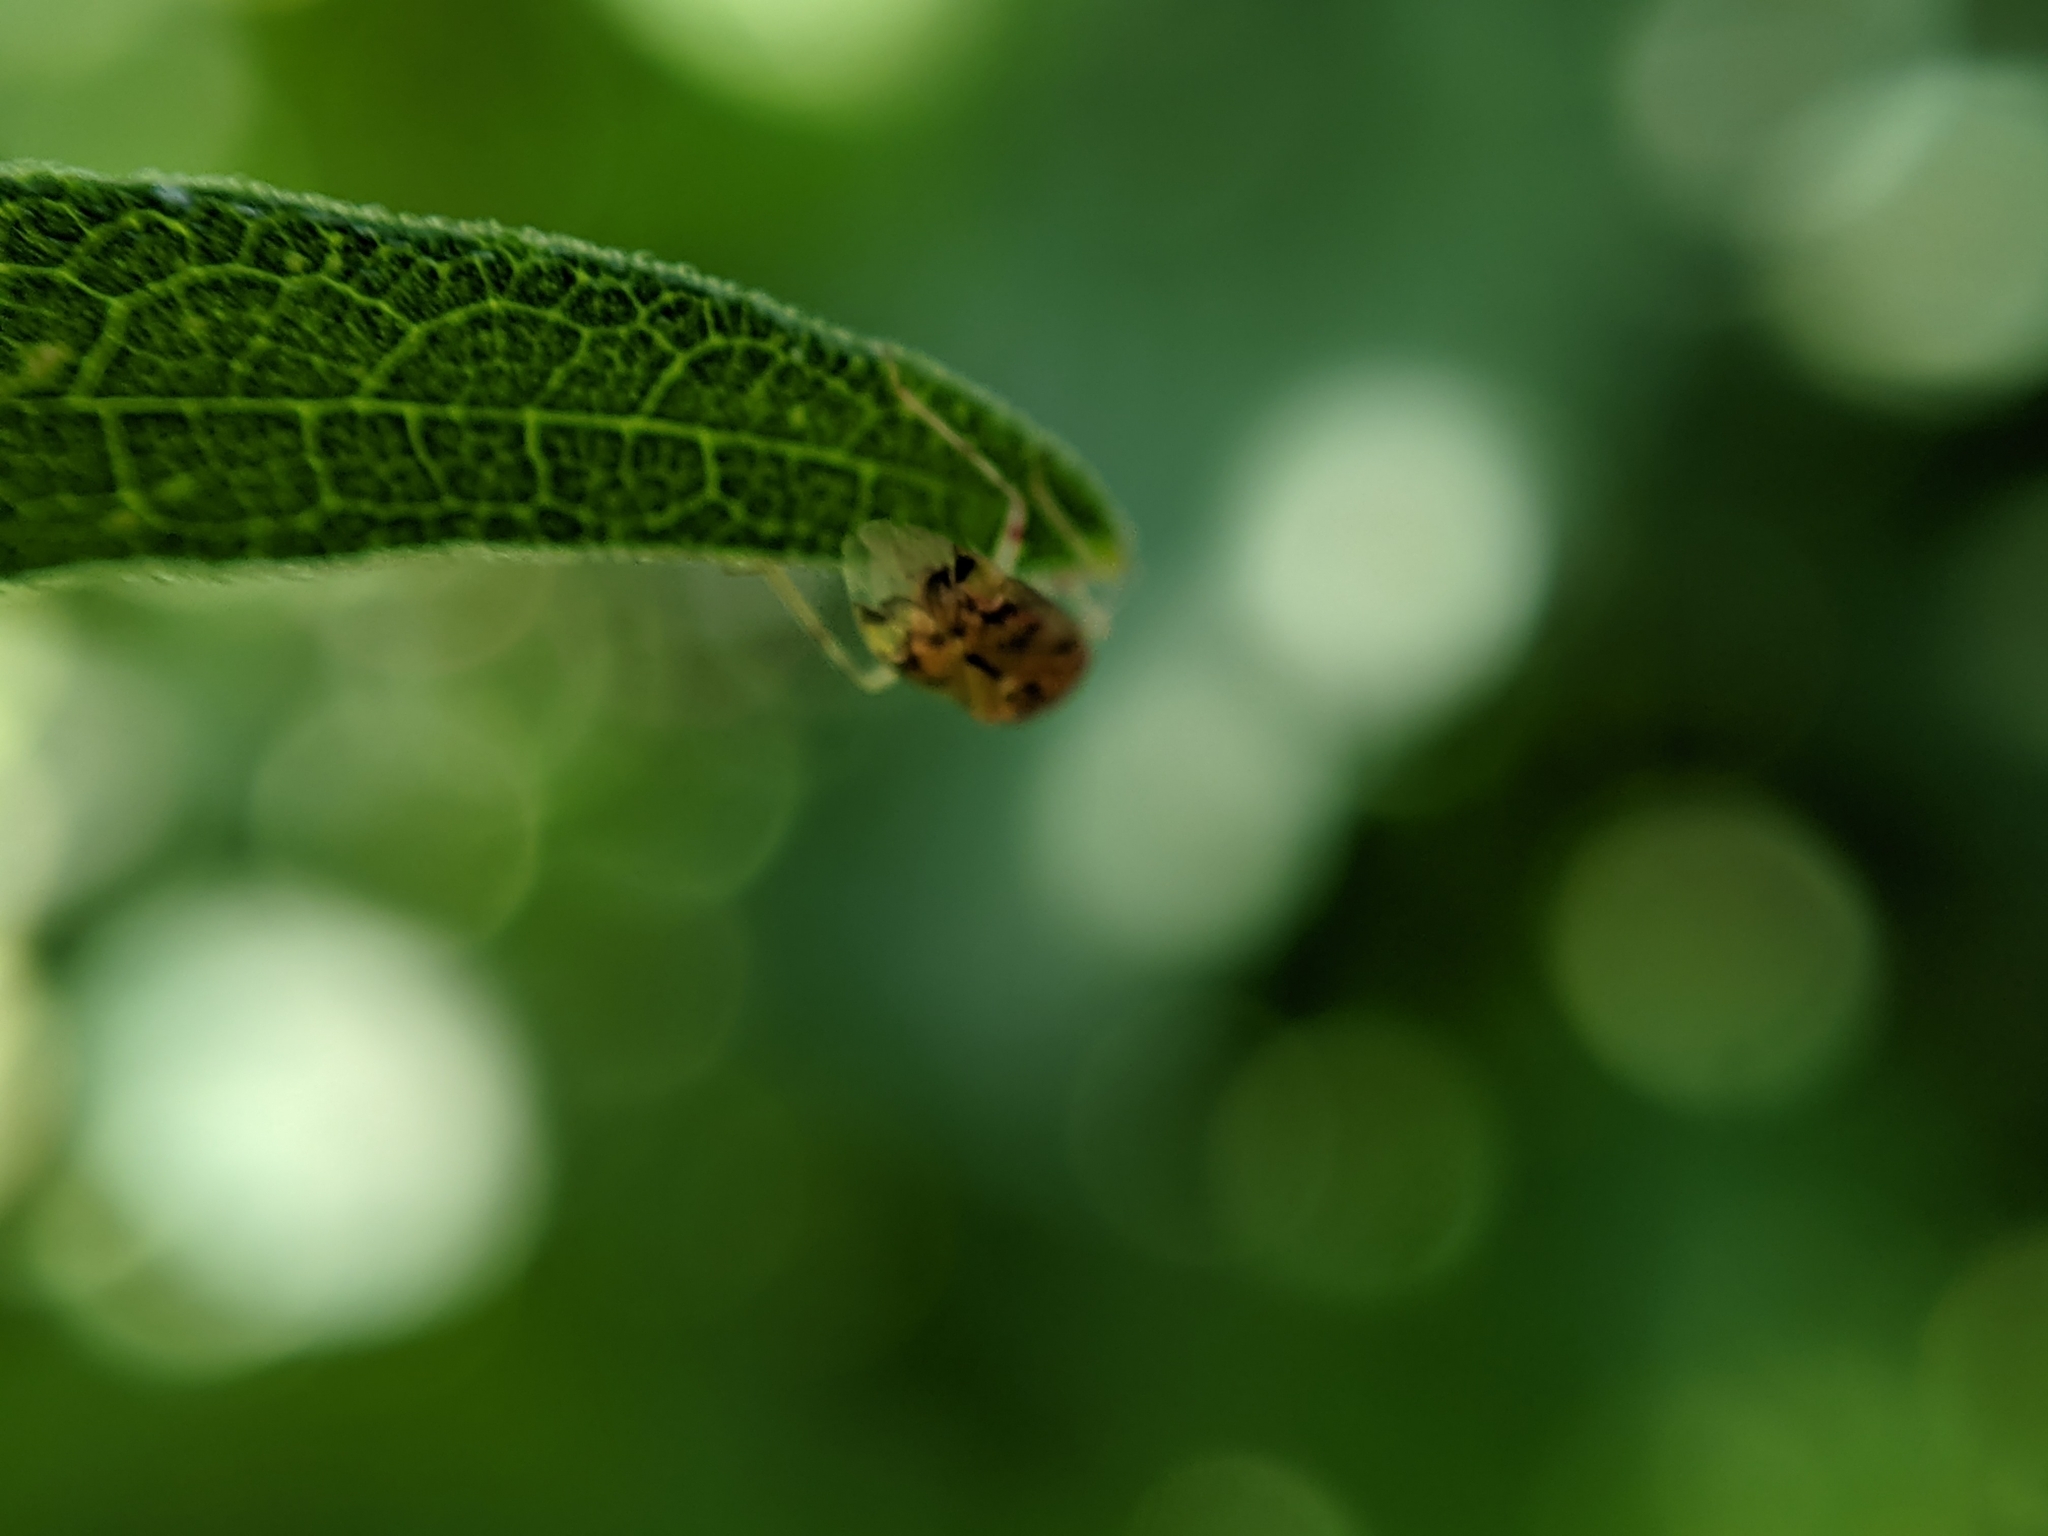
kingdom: Animalia
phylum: Arthropoda
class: Insecta
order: Hemiptera
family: Miridae
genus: Deraeocoris
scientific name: Deraeocoris lutescens
